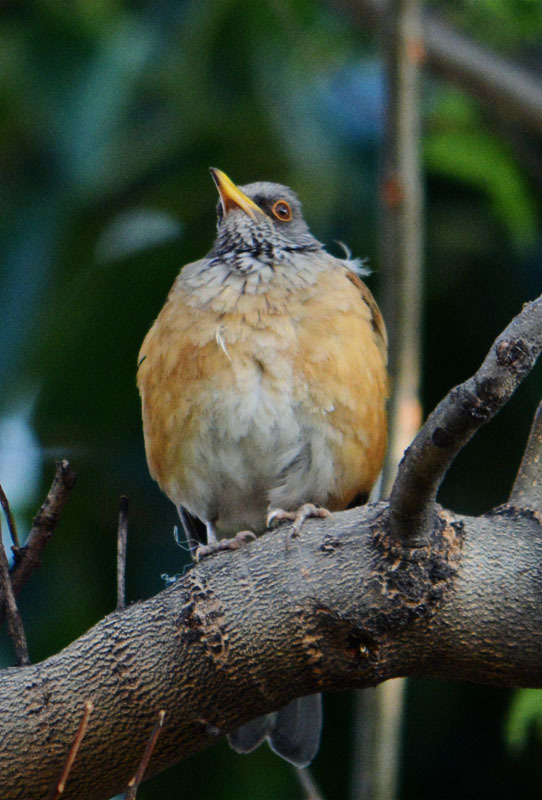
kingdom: Animalia
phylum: Chordata
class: Aves
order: Passeriformes
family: Turdidae
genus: Turdus
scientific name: Turdus rufopalliatus
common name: Rufous-backed robin
